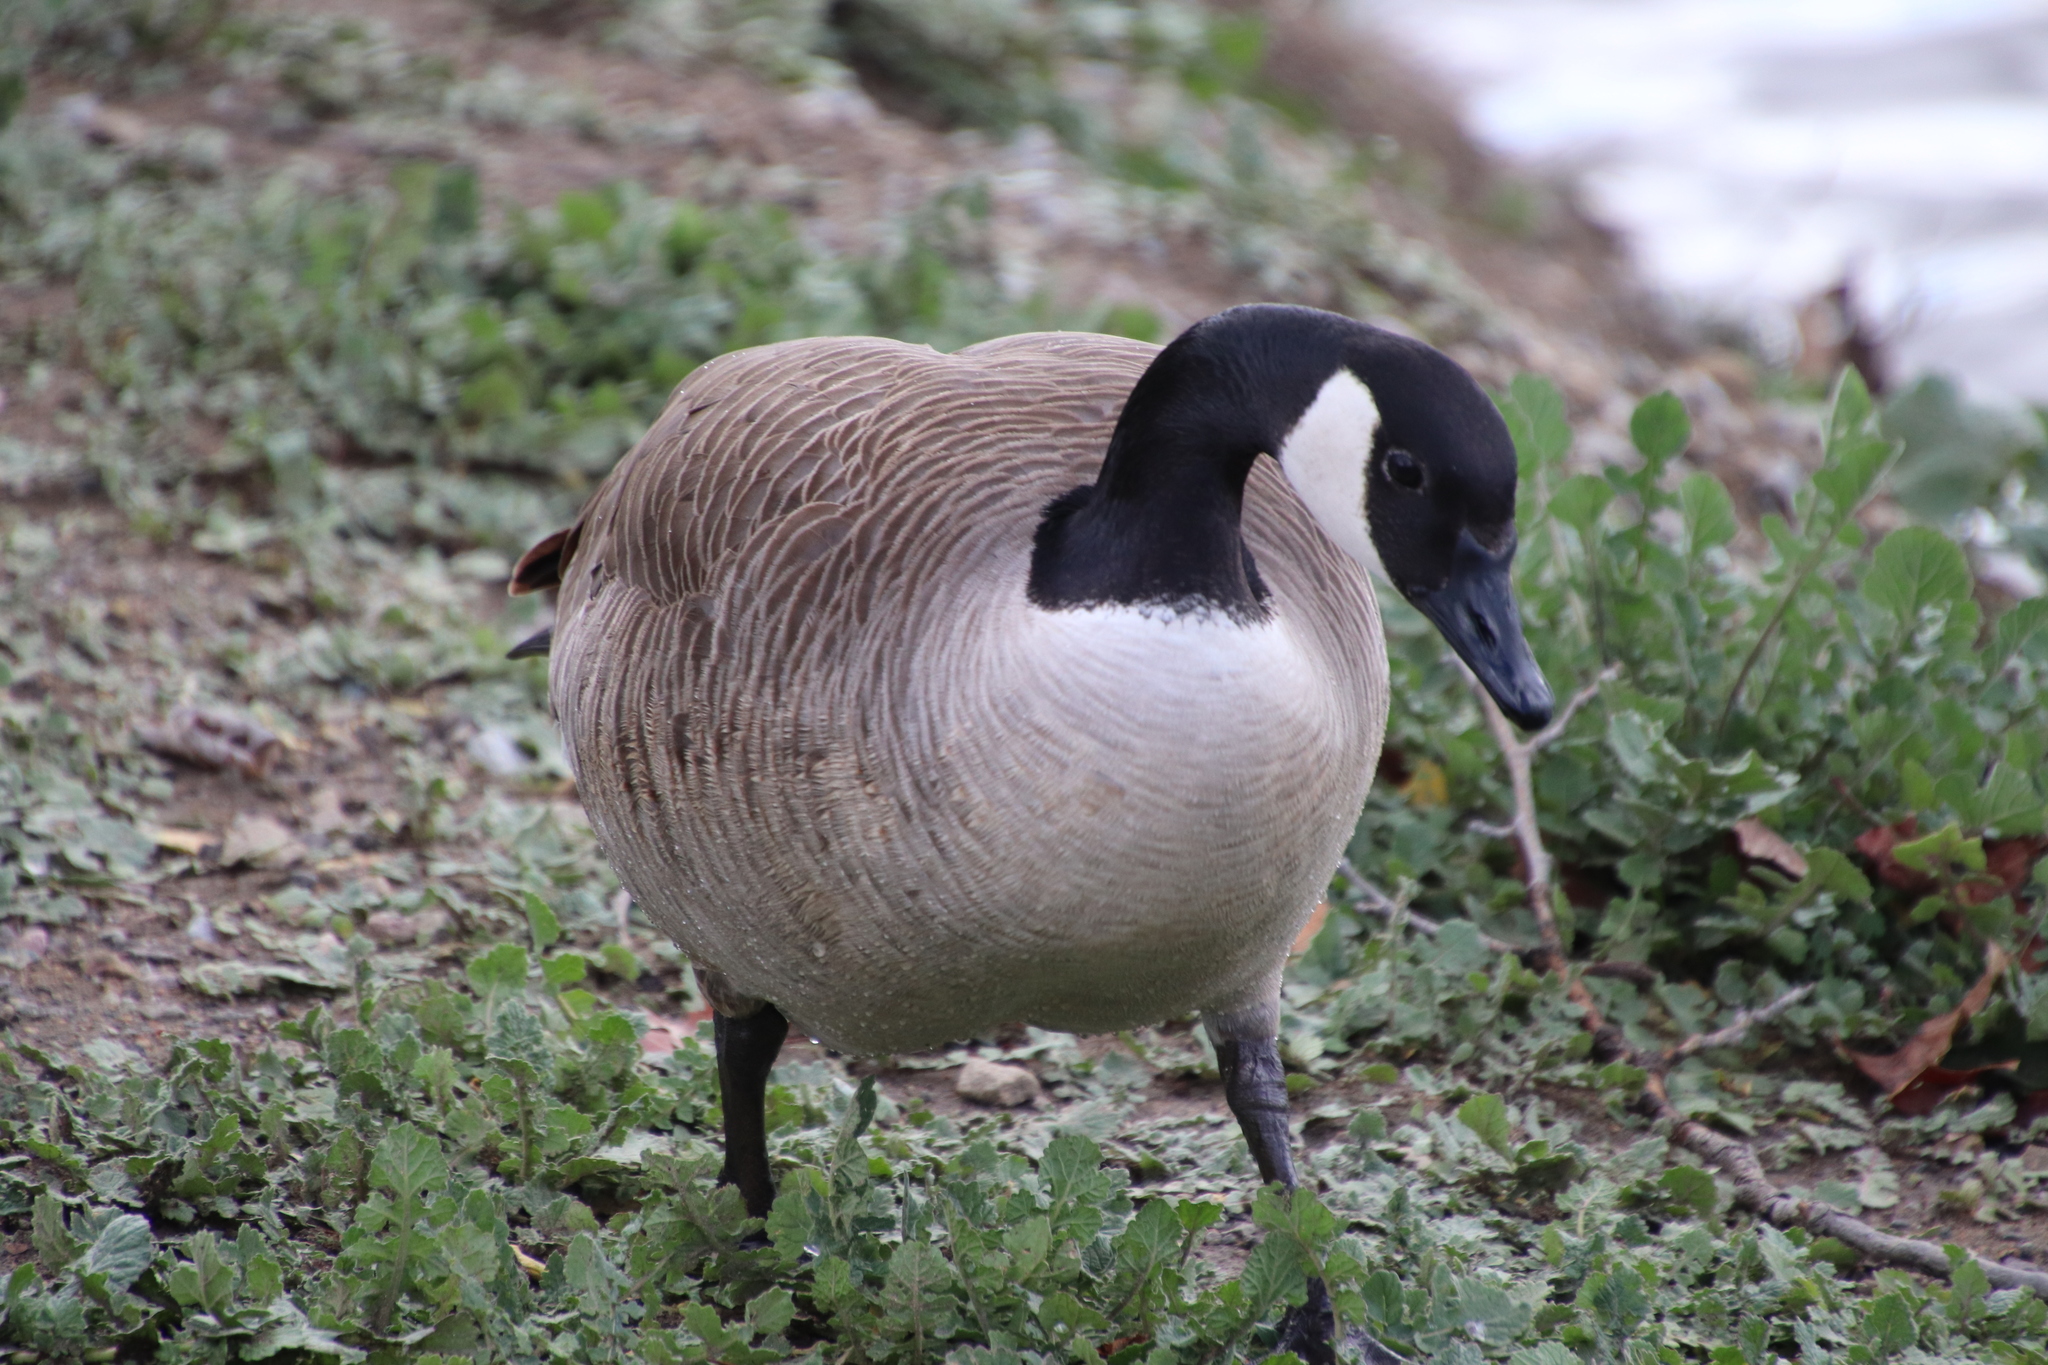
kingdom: Animalia
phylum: Chordata
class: Aves
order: Anseriformes
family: Anatidae
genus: Branta
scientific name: Branta canadensis
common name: Canada goose
